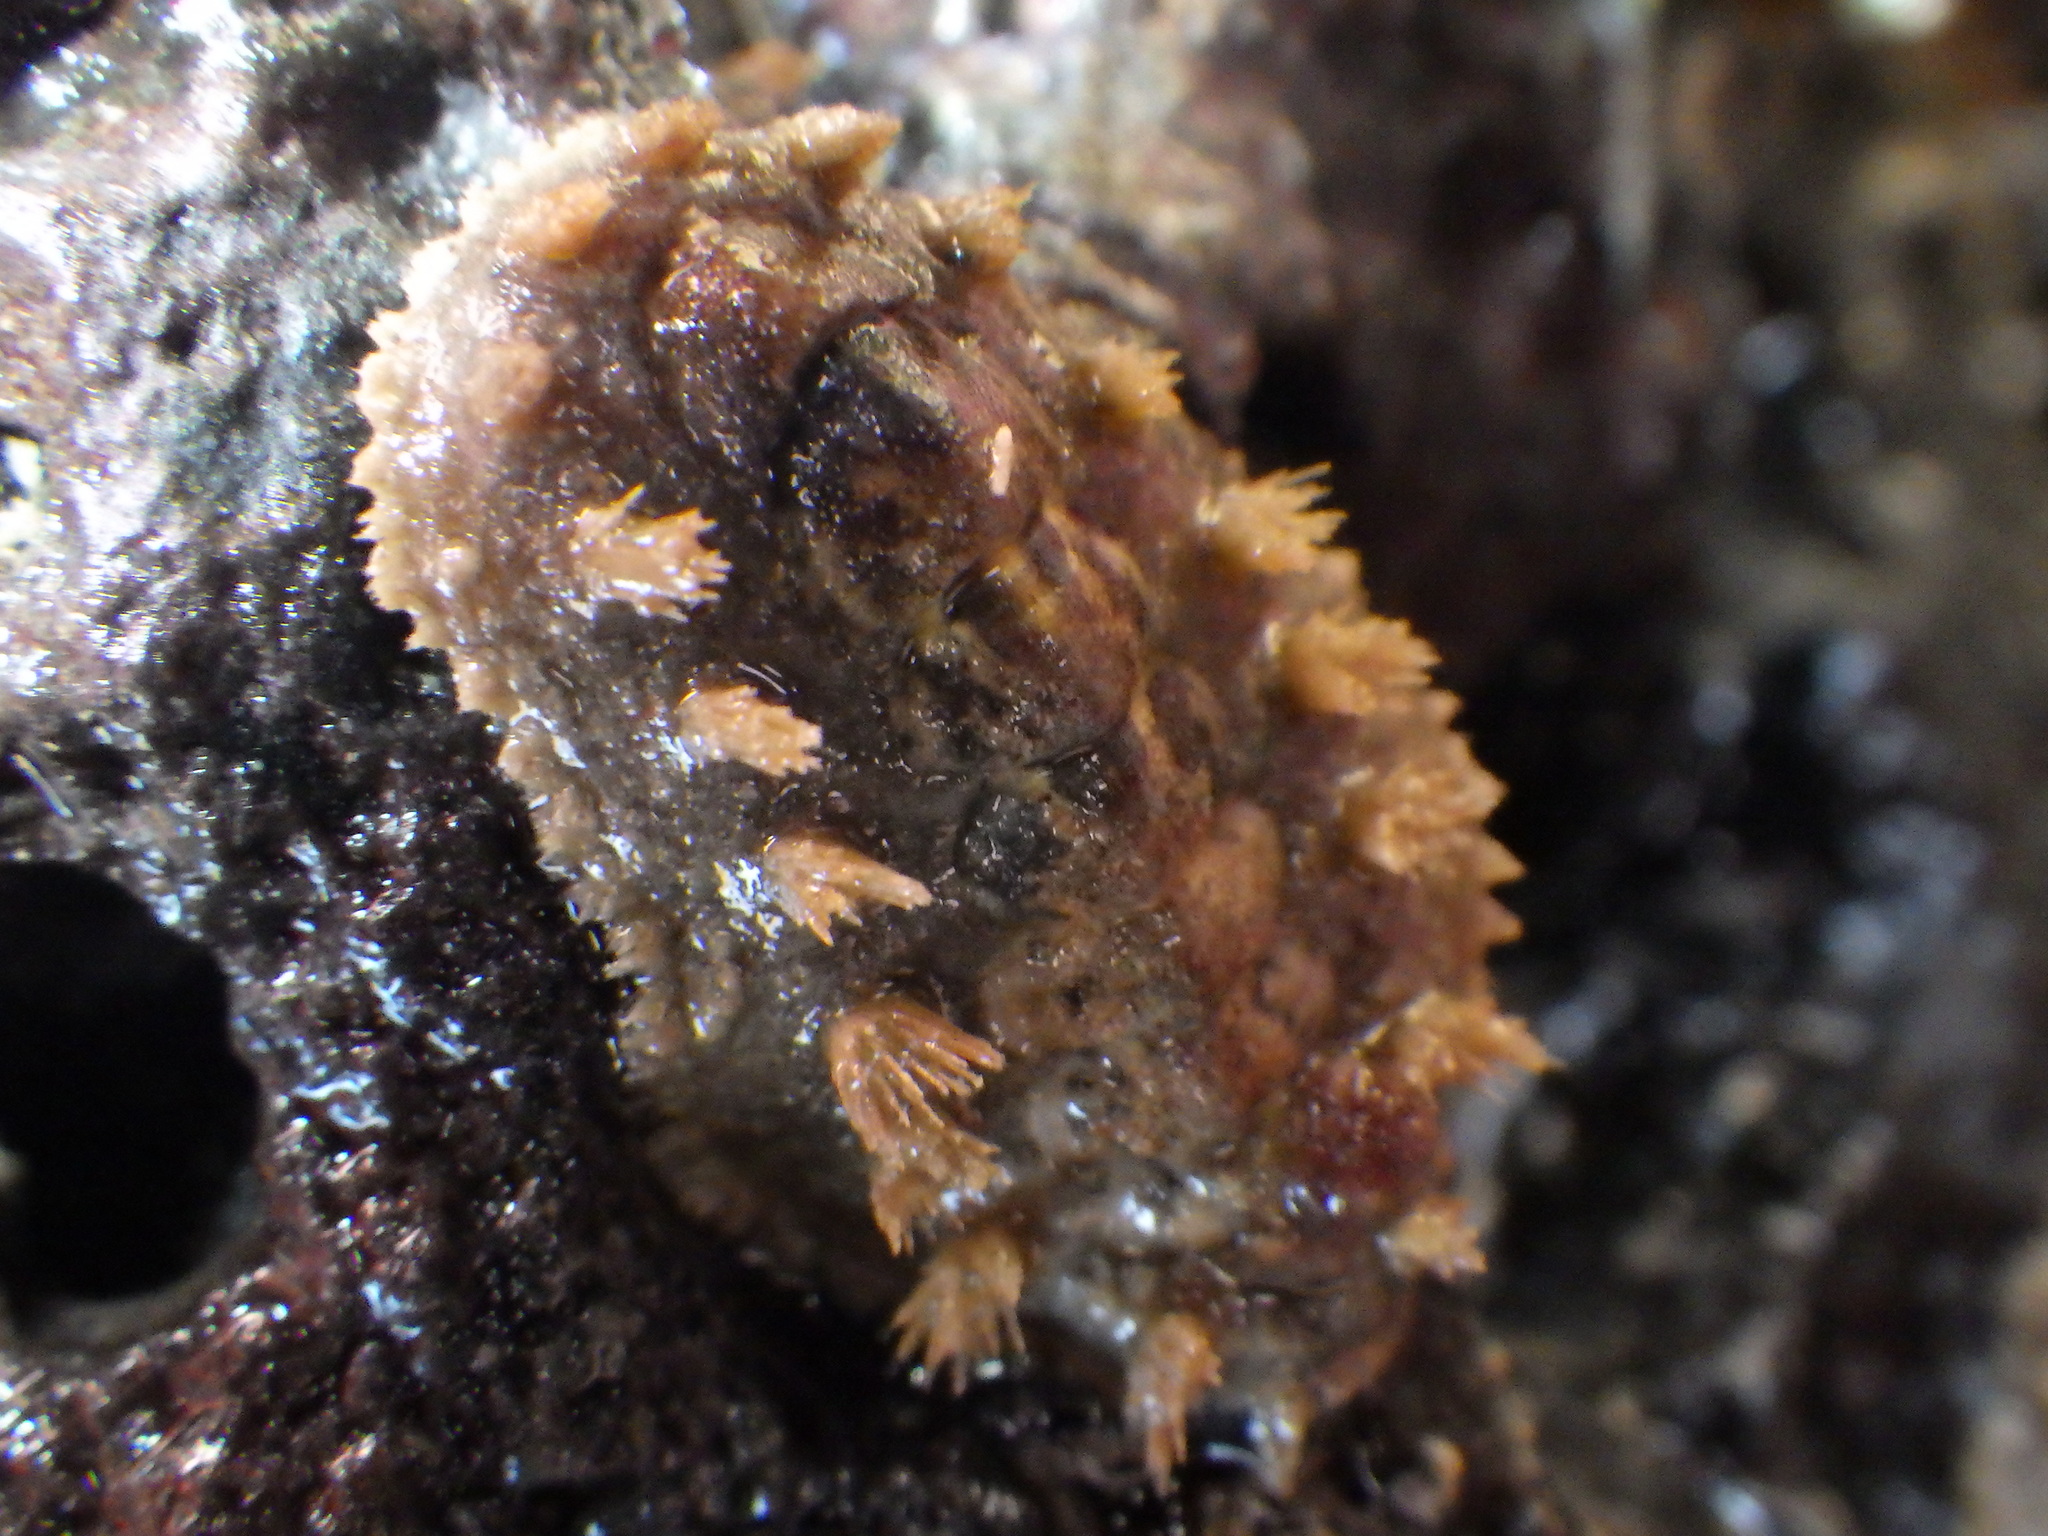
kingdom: Animalia
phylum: Mollusca
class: Polyplacophora
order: Chitonida
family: Acanthochitonidae
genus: Acanthochitona
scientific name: Acanthochitona zelandica
